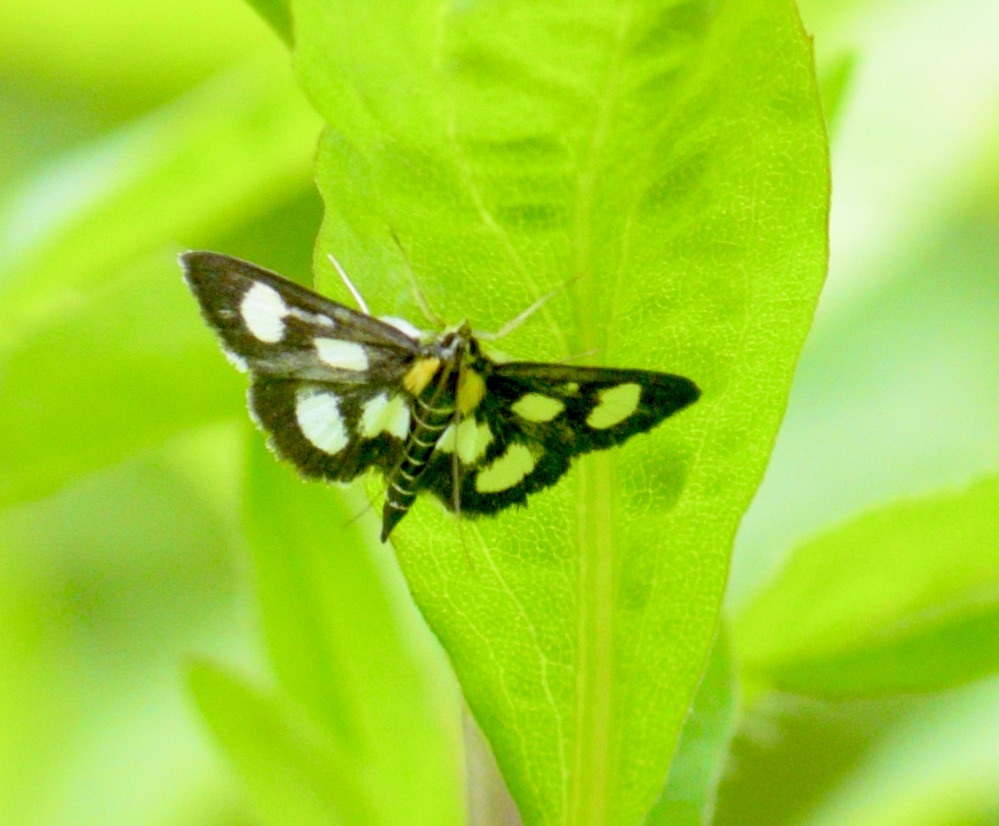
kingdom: Animalia
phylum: Arthropoda
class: Insecta
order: Lepidoptera
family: Crambidae
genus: Anania
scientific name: Anania funebris
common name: White-spotted sable moth
